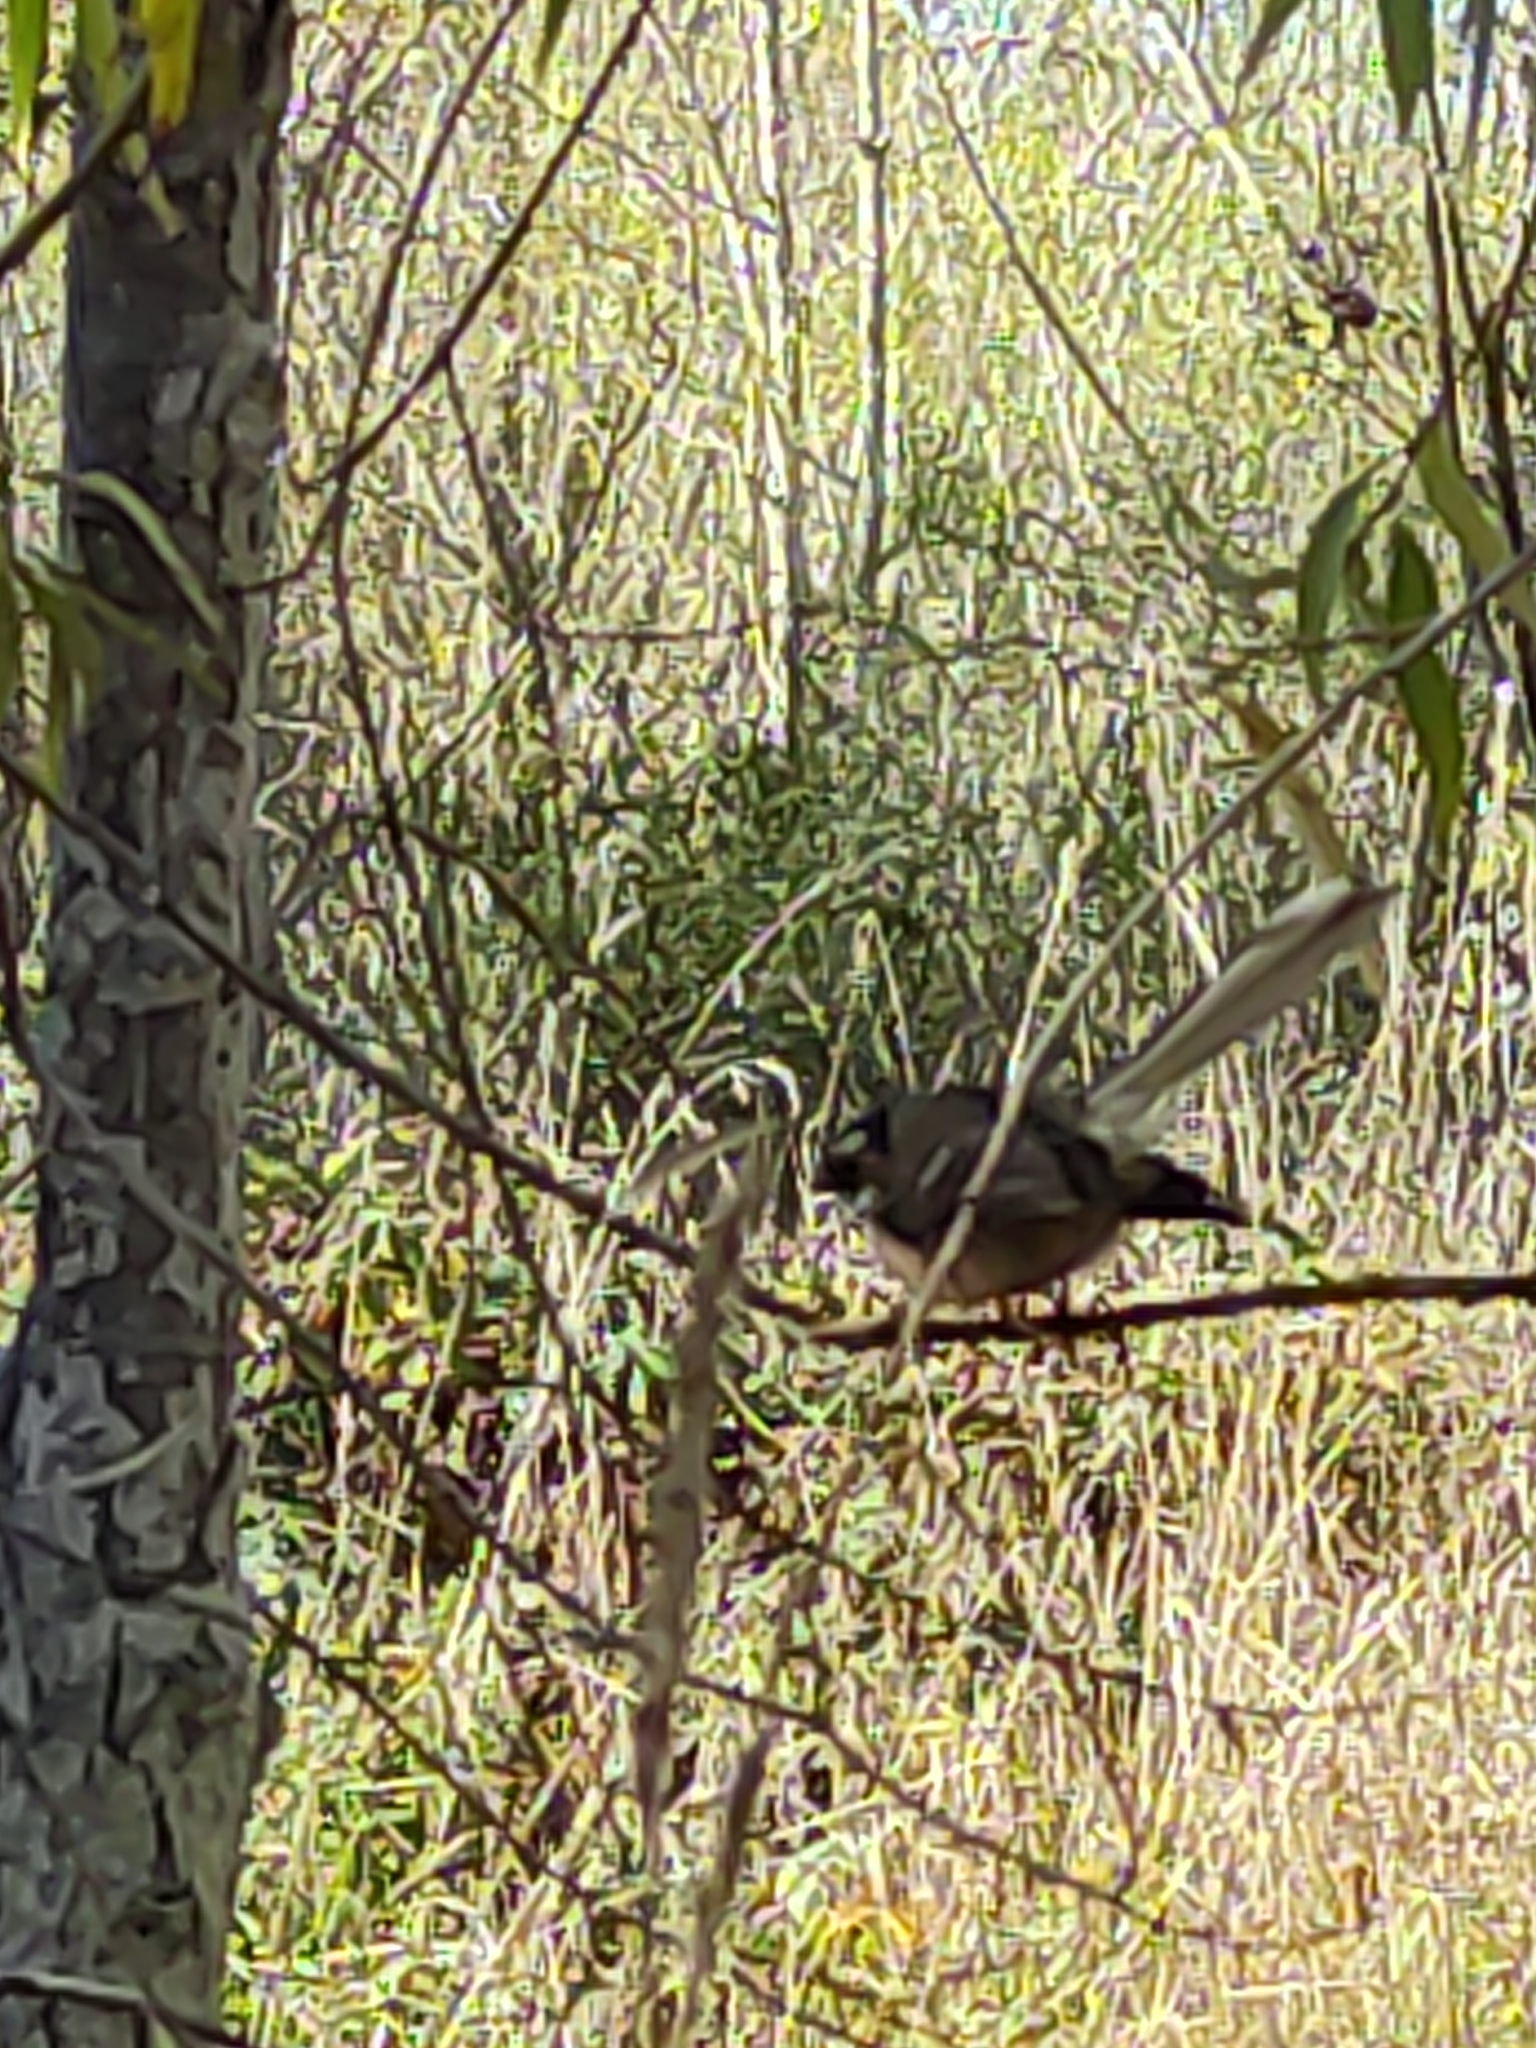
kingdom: Animalia
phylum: Chordata
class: Aves
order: Passeriformes
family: Rhipiduridae
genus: Rhipidura
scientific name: Rhipidura fuliginosa
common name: New zealand fantail
